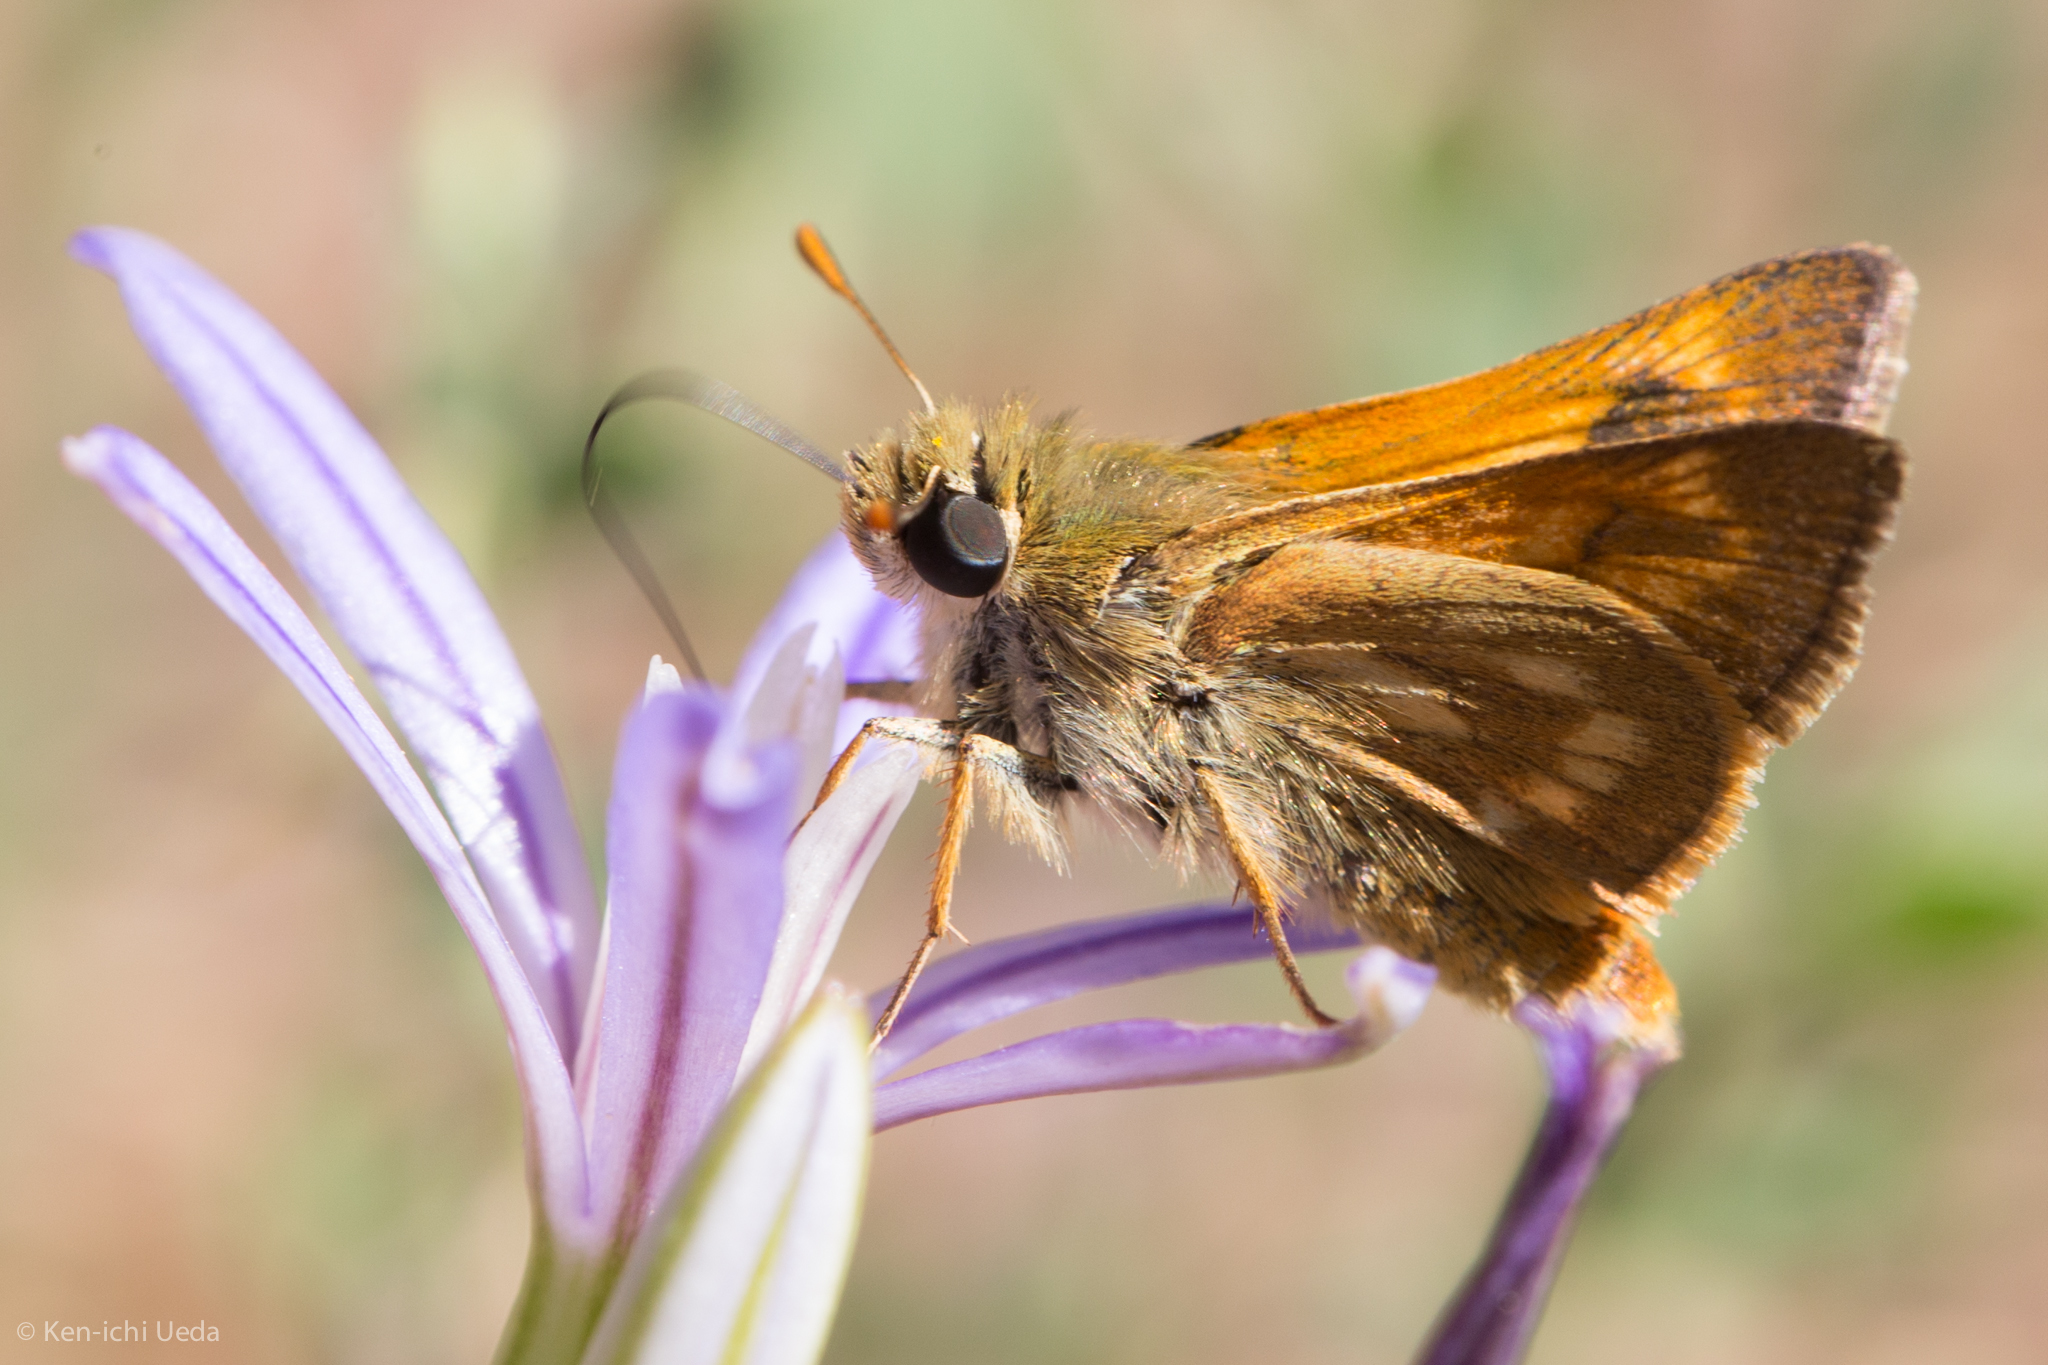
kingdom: Animalia
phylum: Arthropoda
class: Insecta
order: Lepidoptera
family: Hesperiidae
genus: Polites
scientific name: Polites mystic
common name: Long dash
